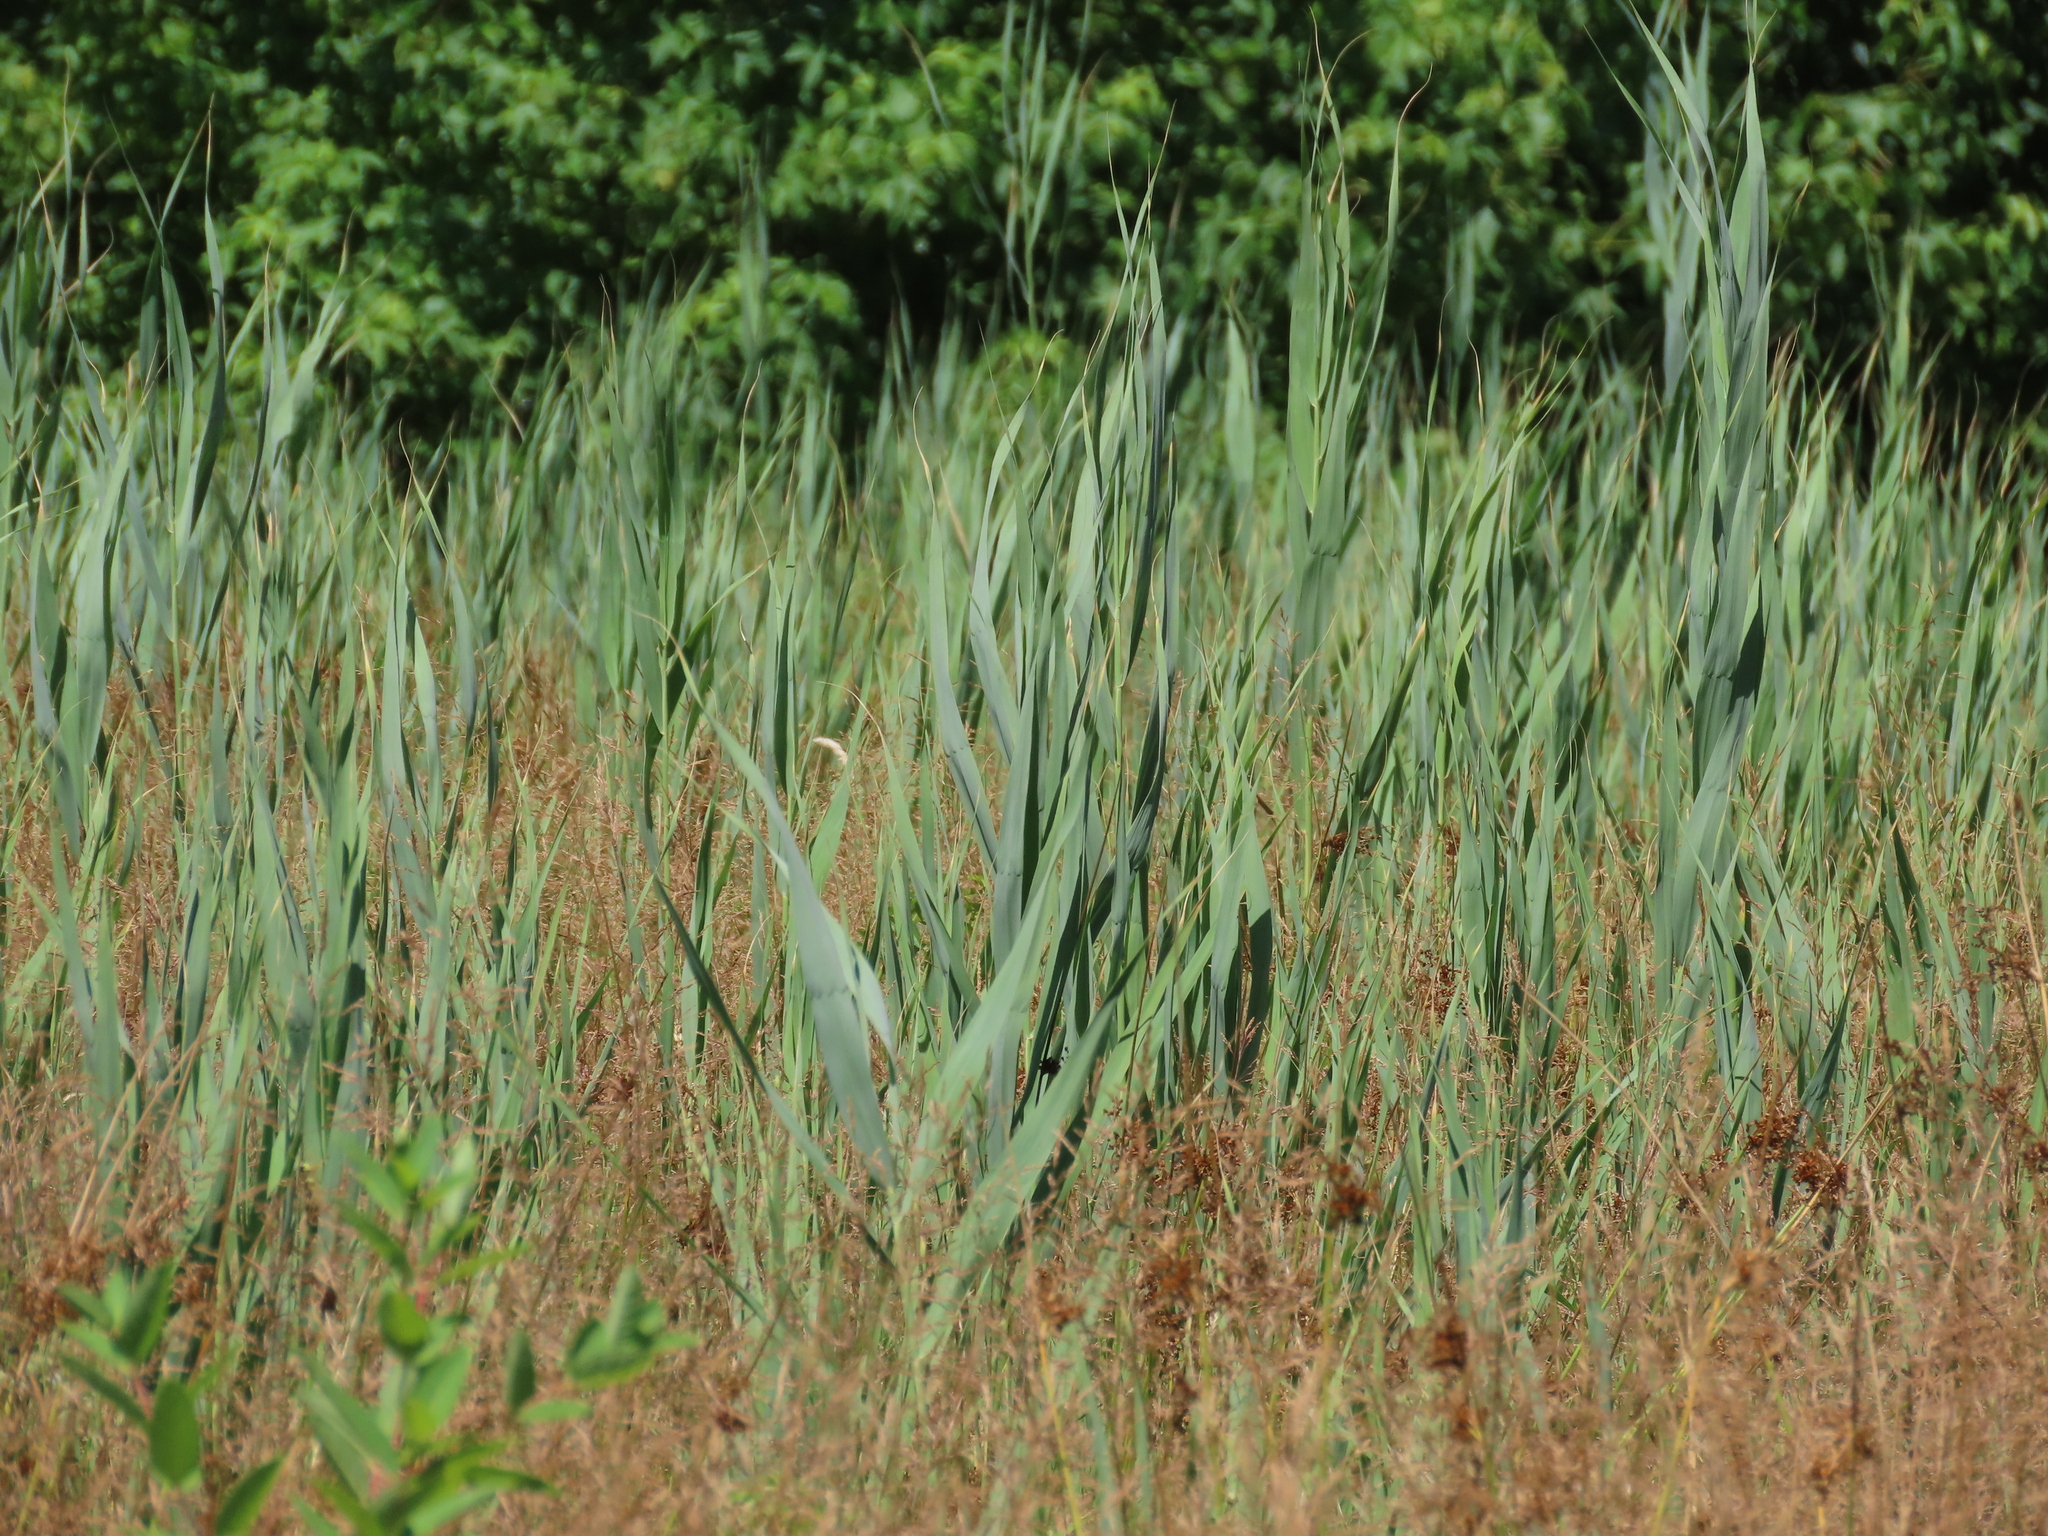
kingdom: Plantae
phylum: Tracheophyta
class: Liliopsida
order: Poales
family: Poaceae
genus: Phragmites
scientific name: Phragmites australis
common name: Common reed
